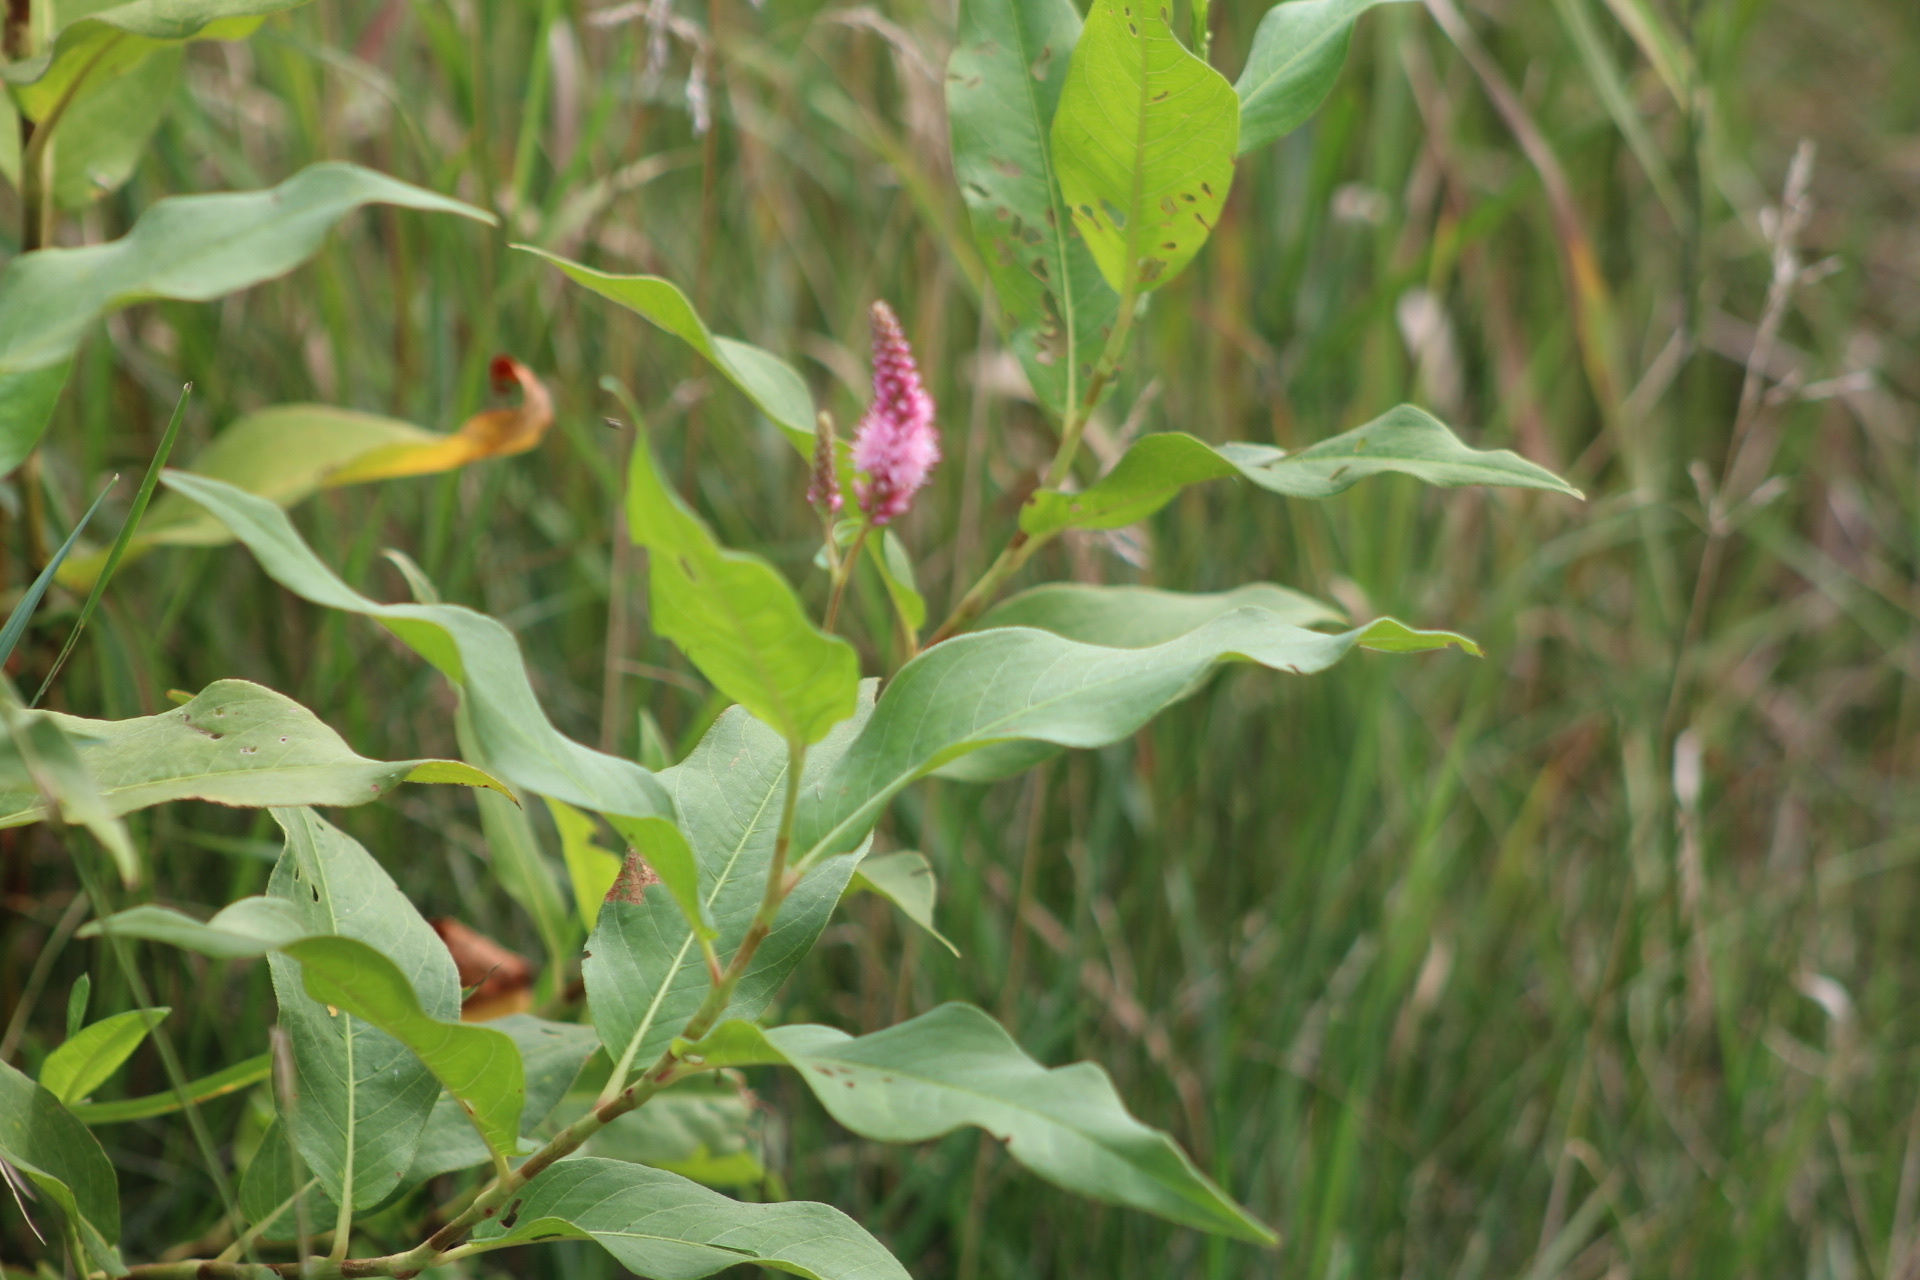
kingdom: Plantae
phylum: Tracheophyta
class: Magnoliopsida
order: Caryophyllales
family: Polygonaceae
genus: Persicaria
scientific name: Persicaria amphibia
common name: Amphibious bistort
